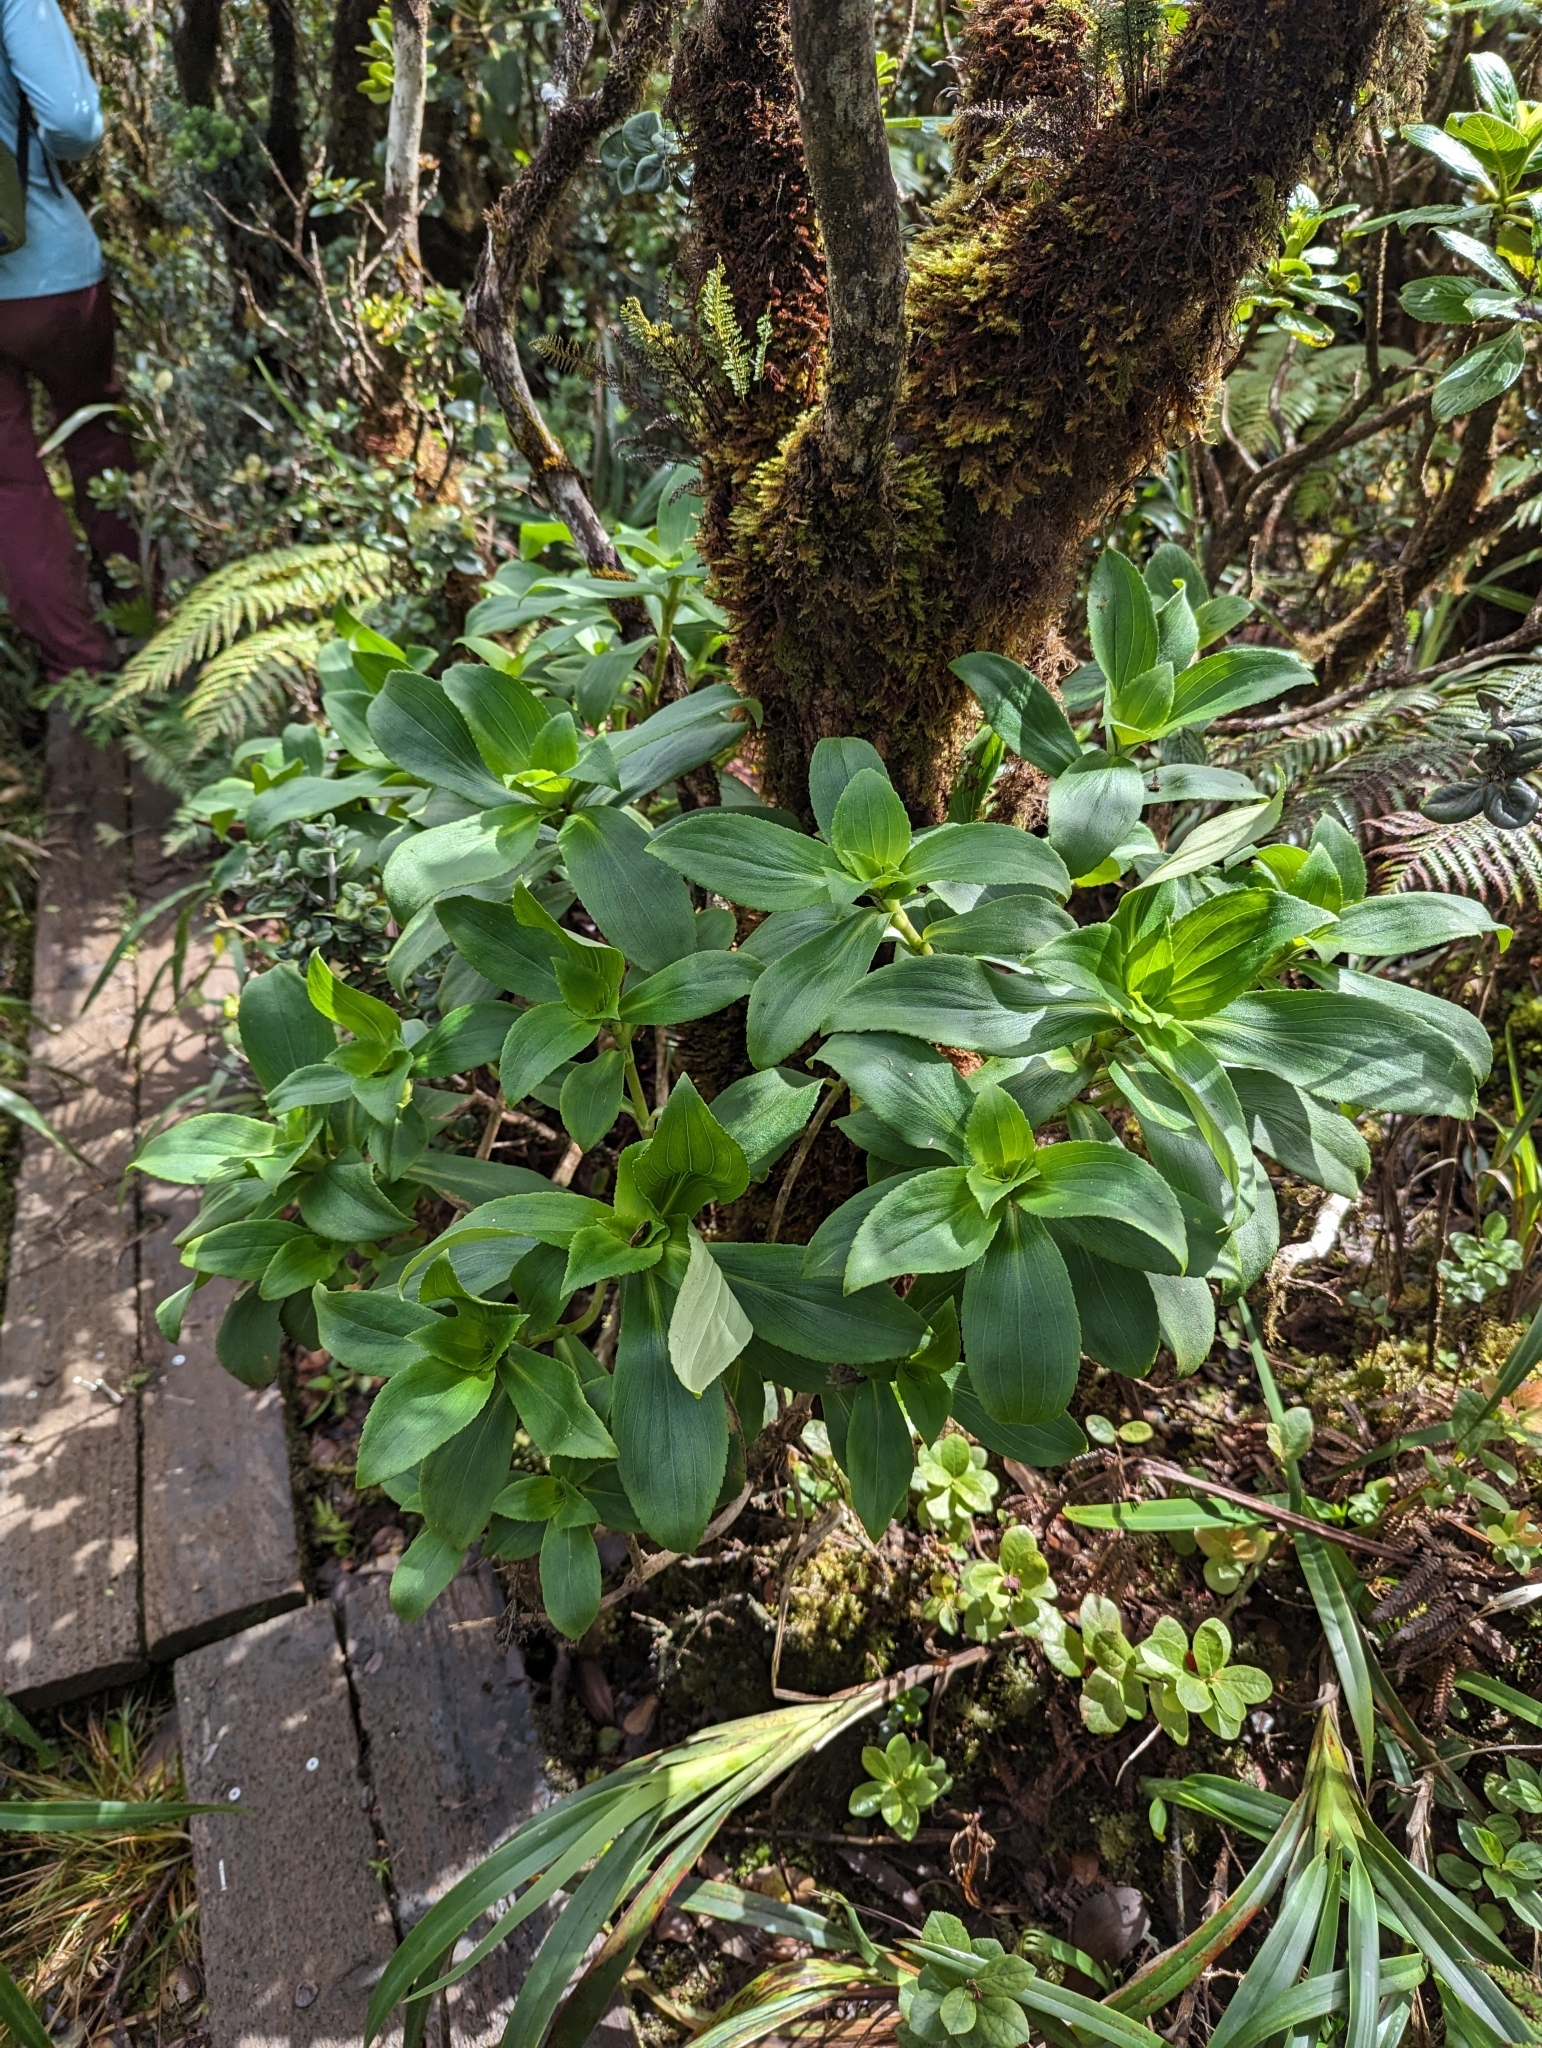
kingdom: Plantae
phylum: Tracheophyta
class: Magnoliopsida
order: Asterales
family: Asteraceae
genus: Dubautia
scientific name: Dubautia laxa
